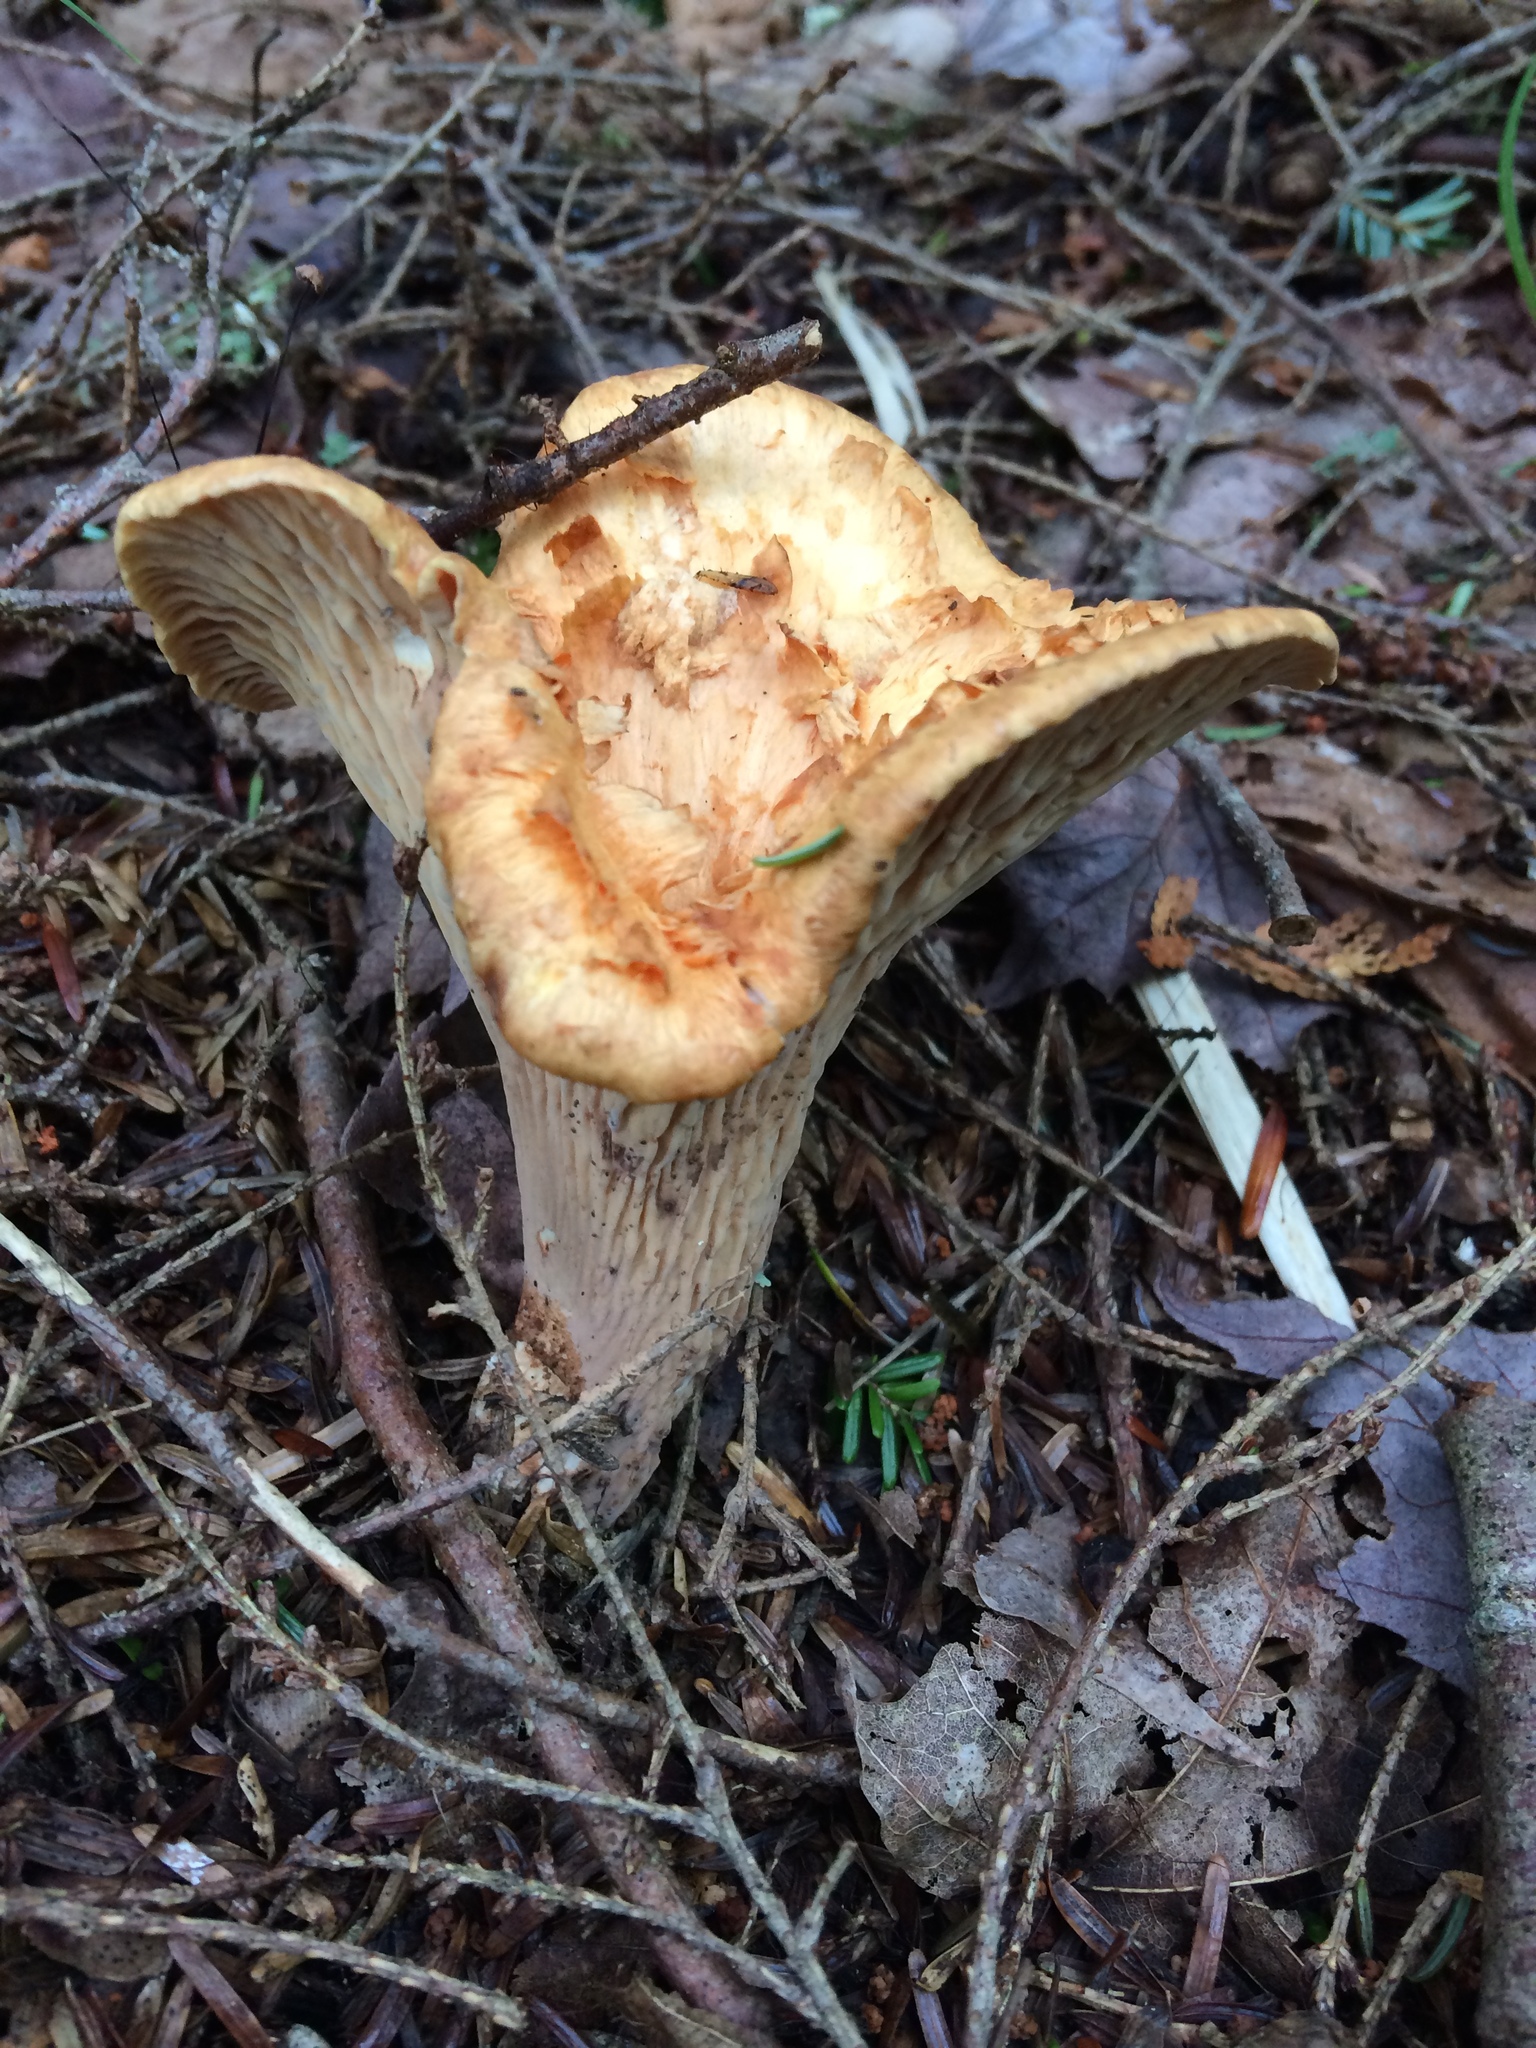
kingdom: Fungi
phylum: Basidiomycota
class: Agaricomycetes
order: Gomphales
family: Gomphaceae
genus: Turbinellus
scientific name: Turbinellus floccosus
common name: Scaly chanterelle
